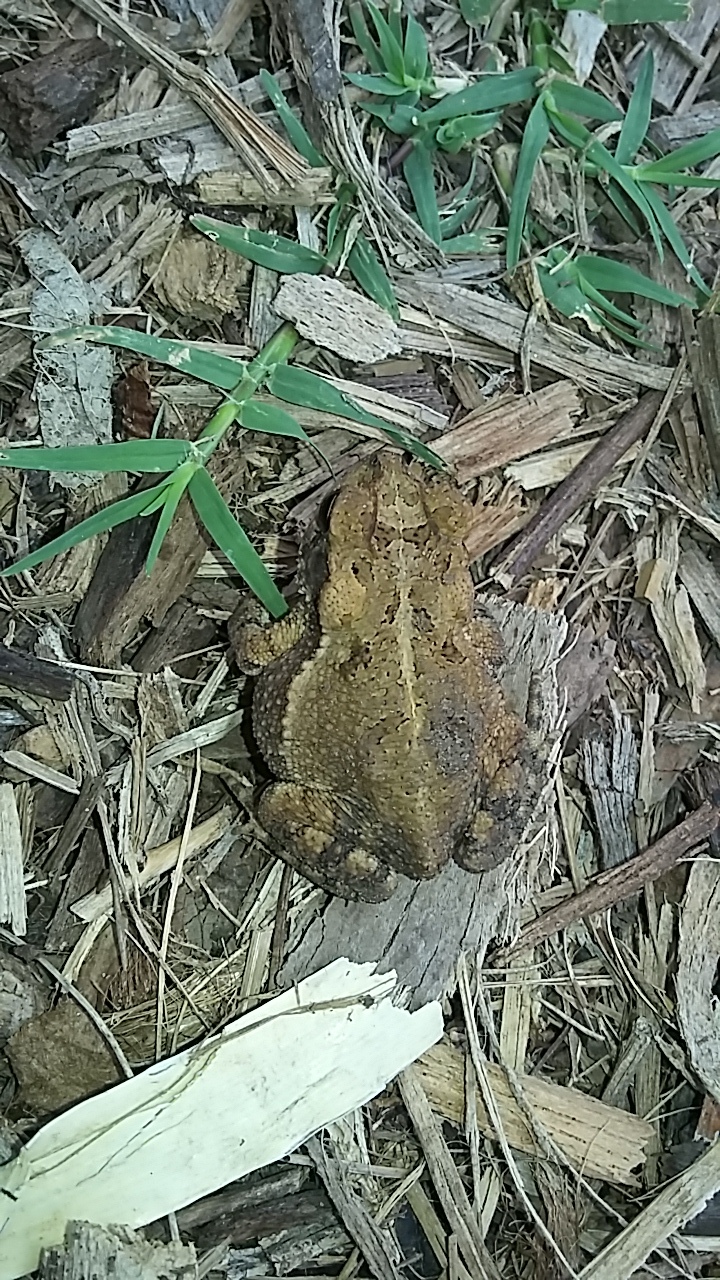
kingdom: Animalia
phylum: Chordata
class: Amphibia
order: Anura
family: Bufonidae
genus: Incilius
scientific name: Incilius nebulifer
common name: Gulf coast toad
